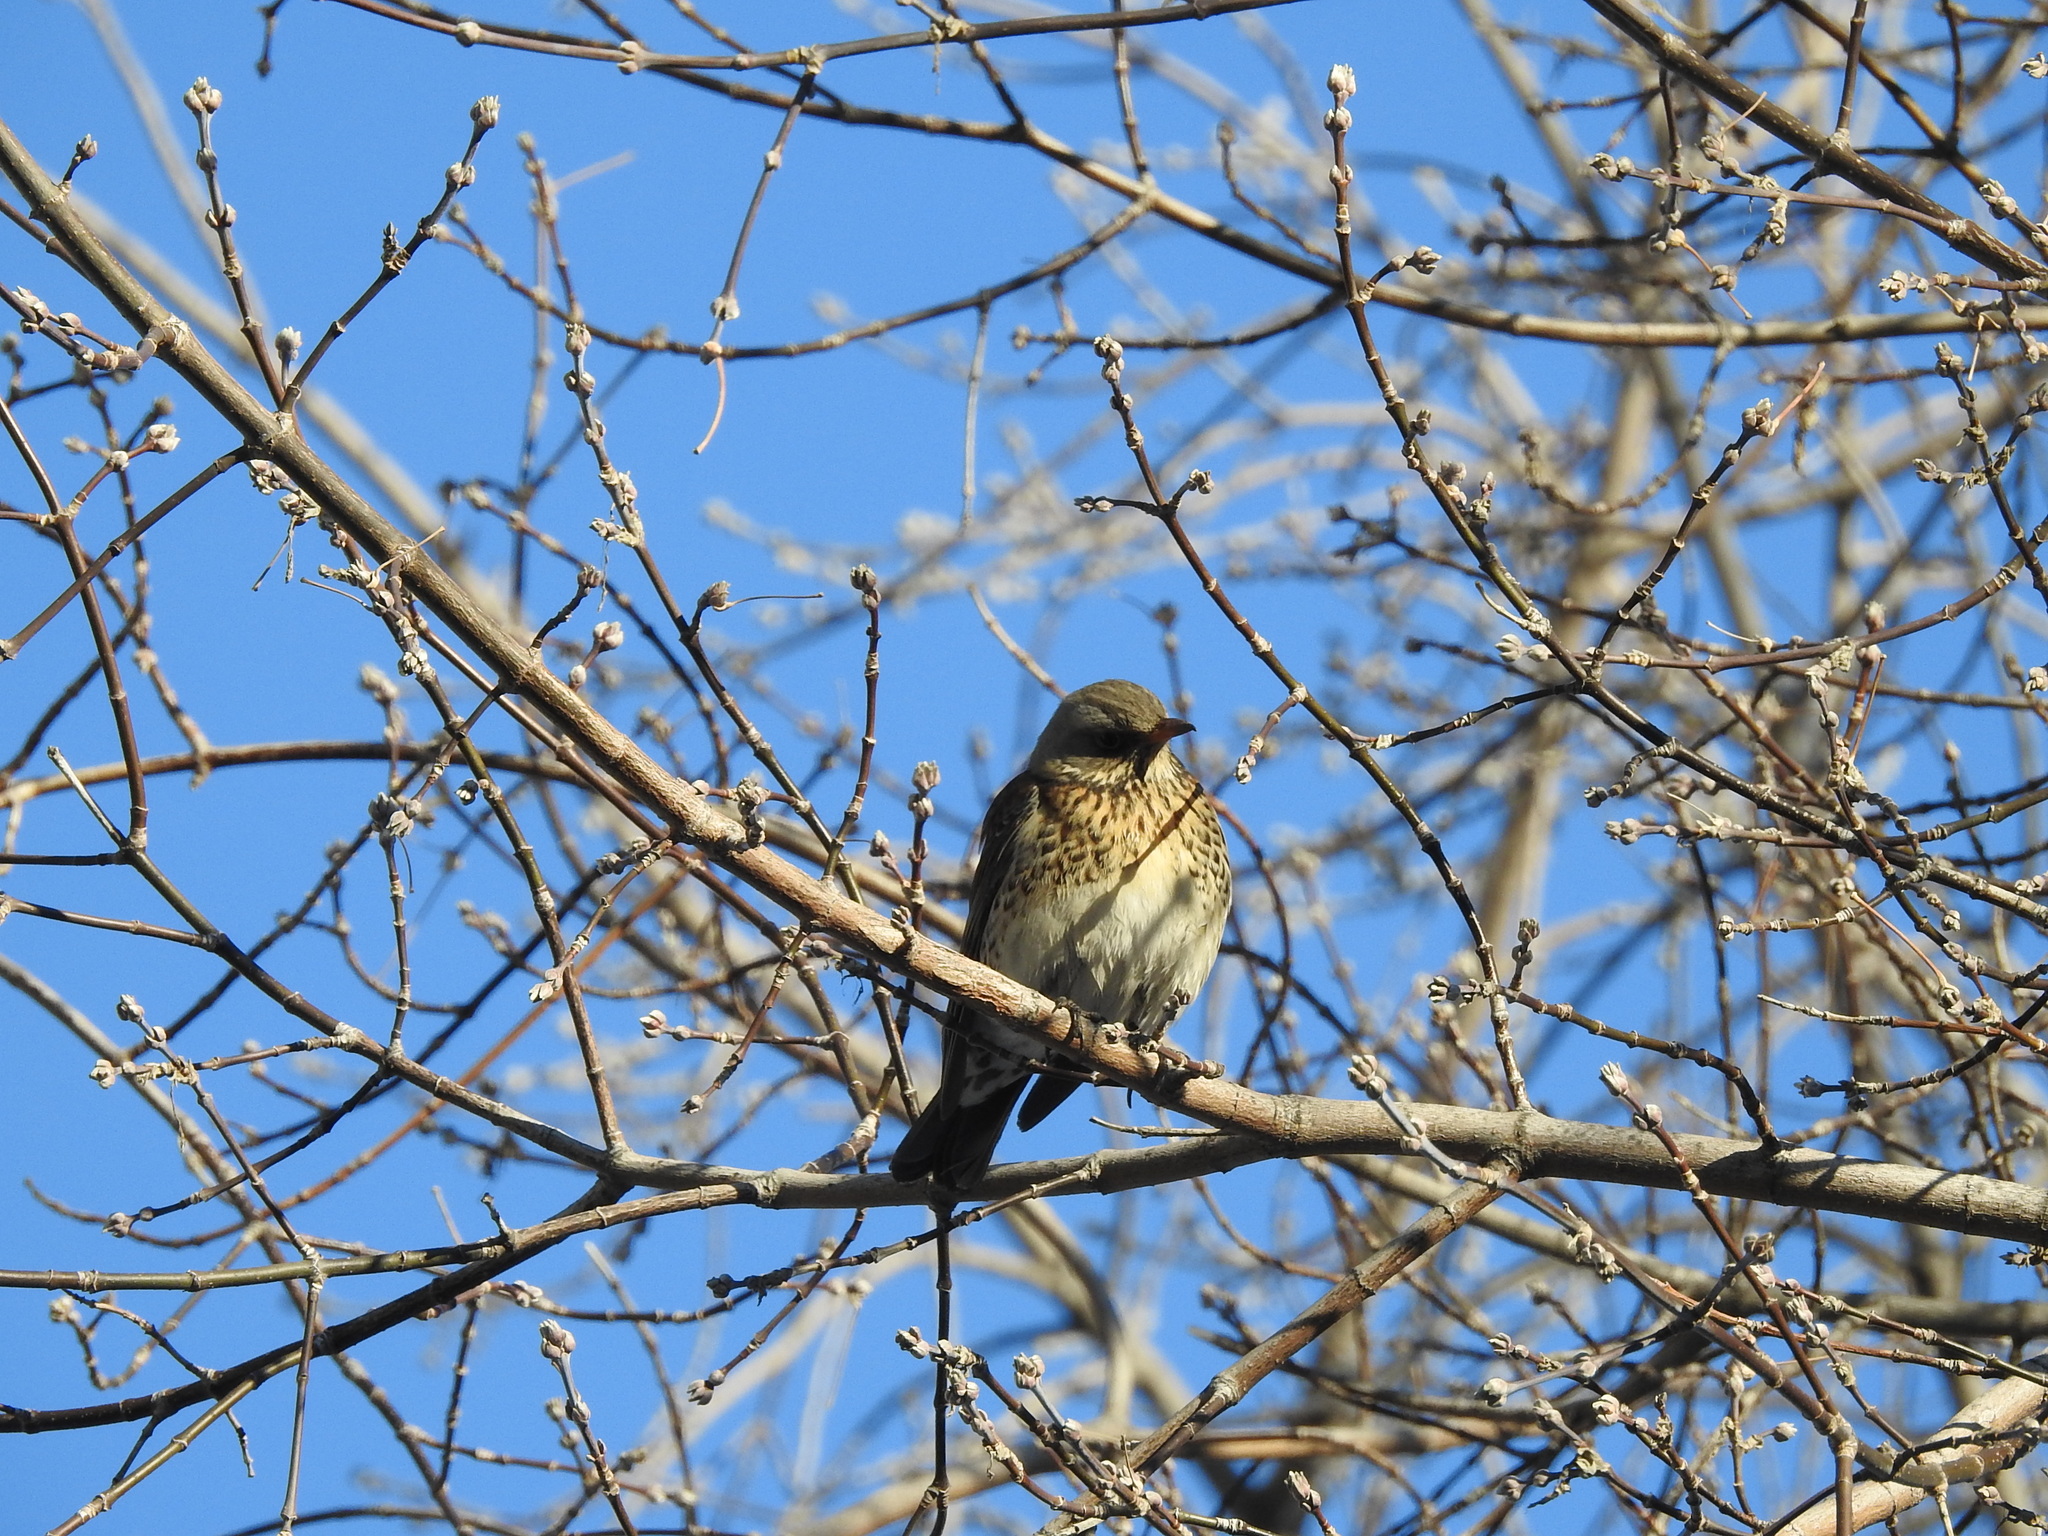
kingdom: Animalia
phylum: Chordata
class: Aves
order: Passeriformes
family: Turdidae
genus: Turdus
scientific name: Turdus pilaris
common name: Fieldfare
